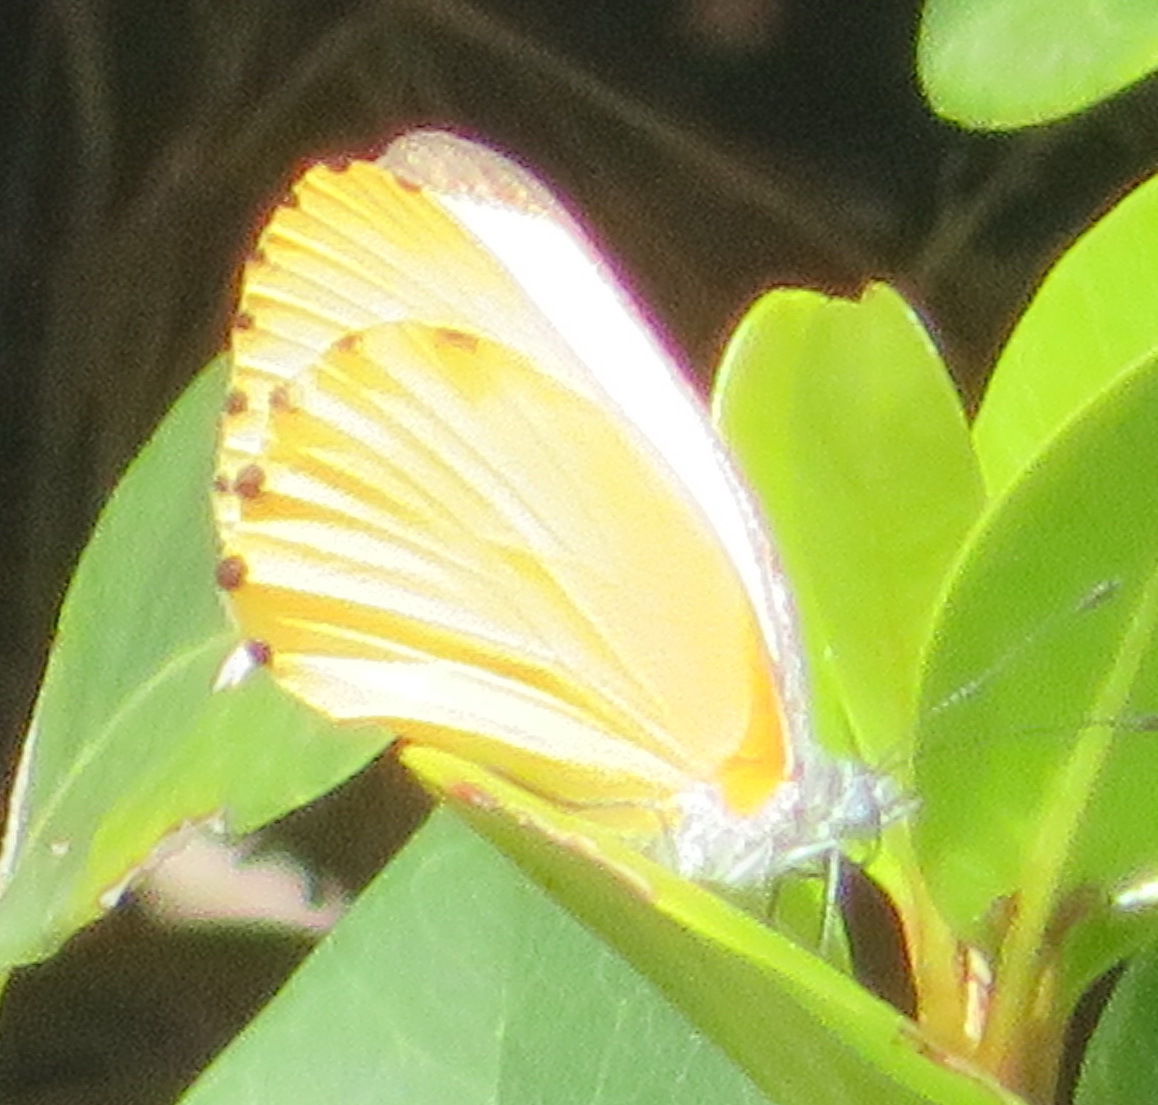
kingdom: Animalia
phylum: Arthropoda
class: Insecta
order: Lepidoptera
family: Pieridae
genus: Mylothris
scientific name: Mylothris agathina
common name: Eastern dotted border
